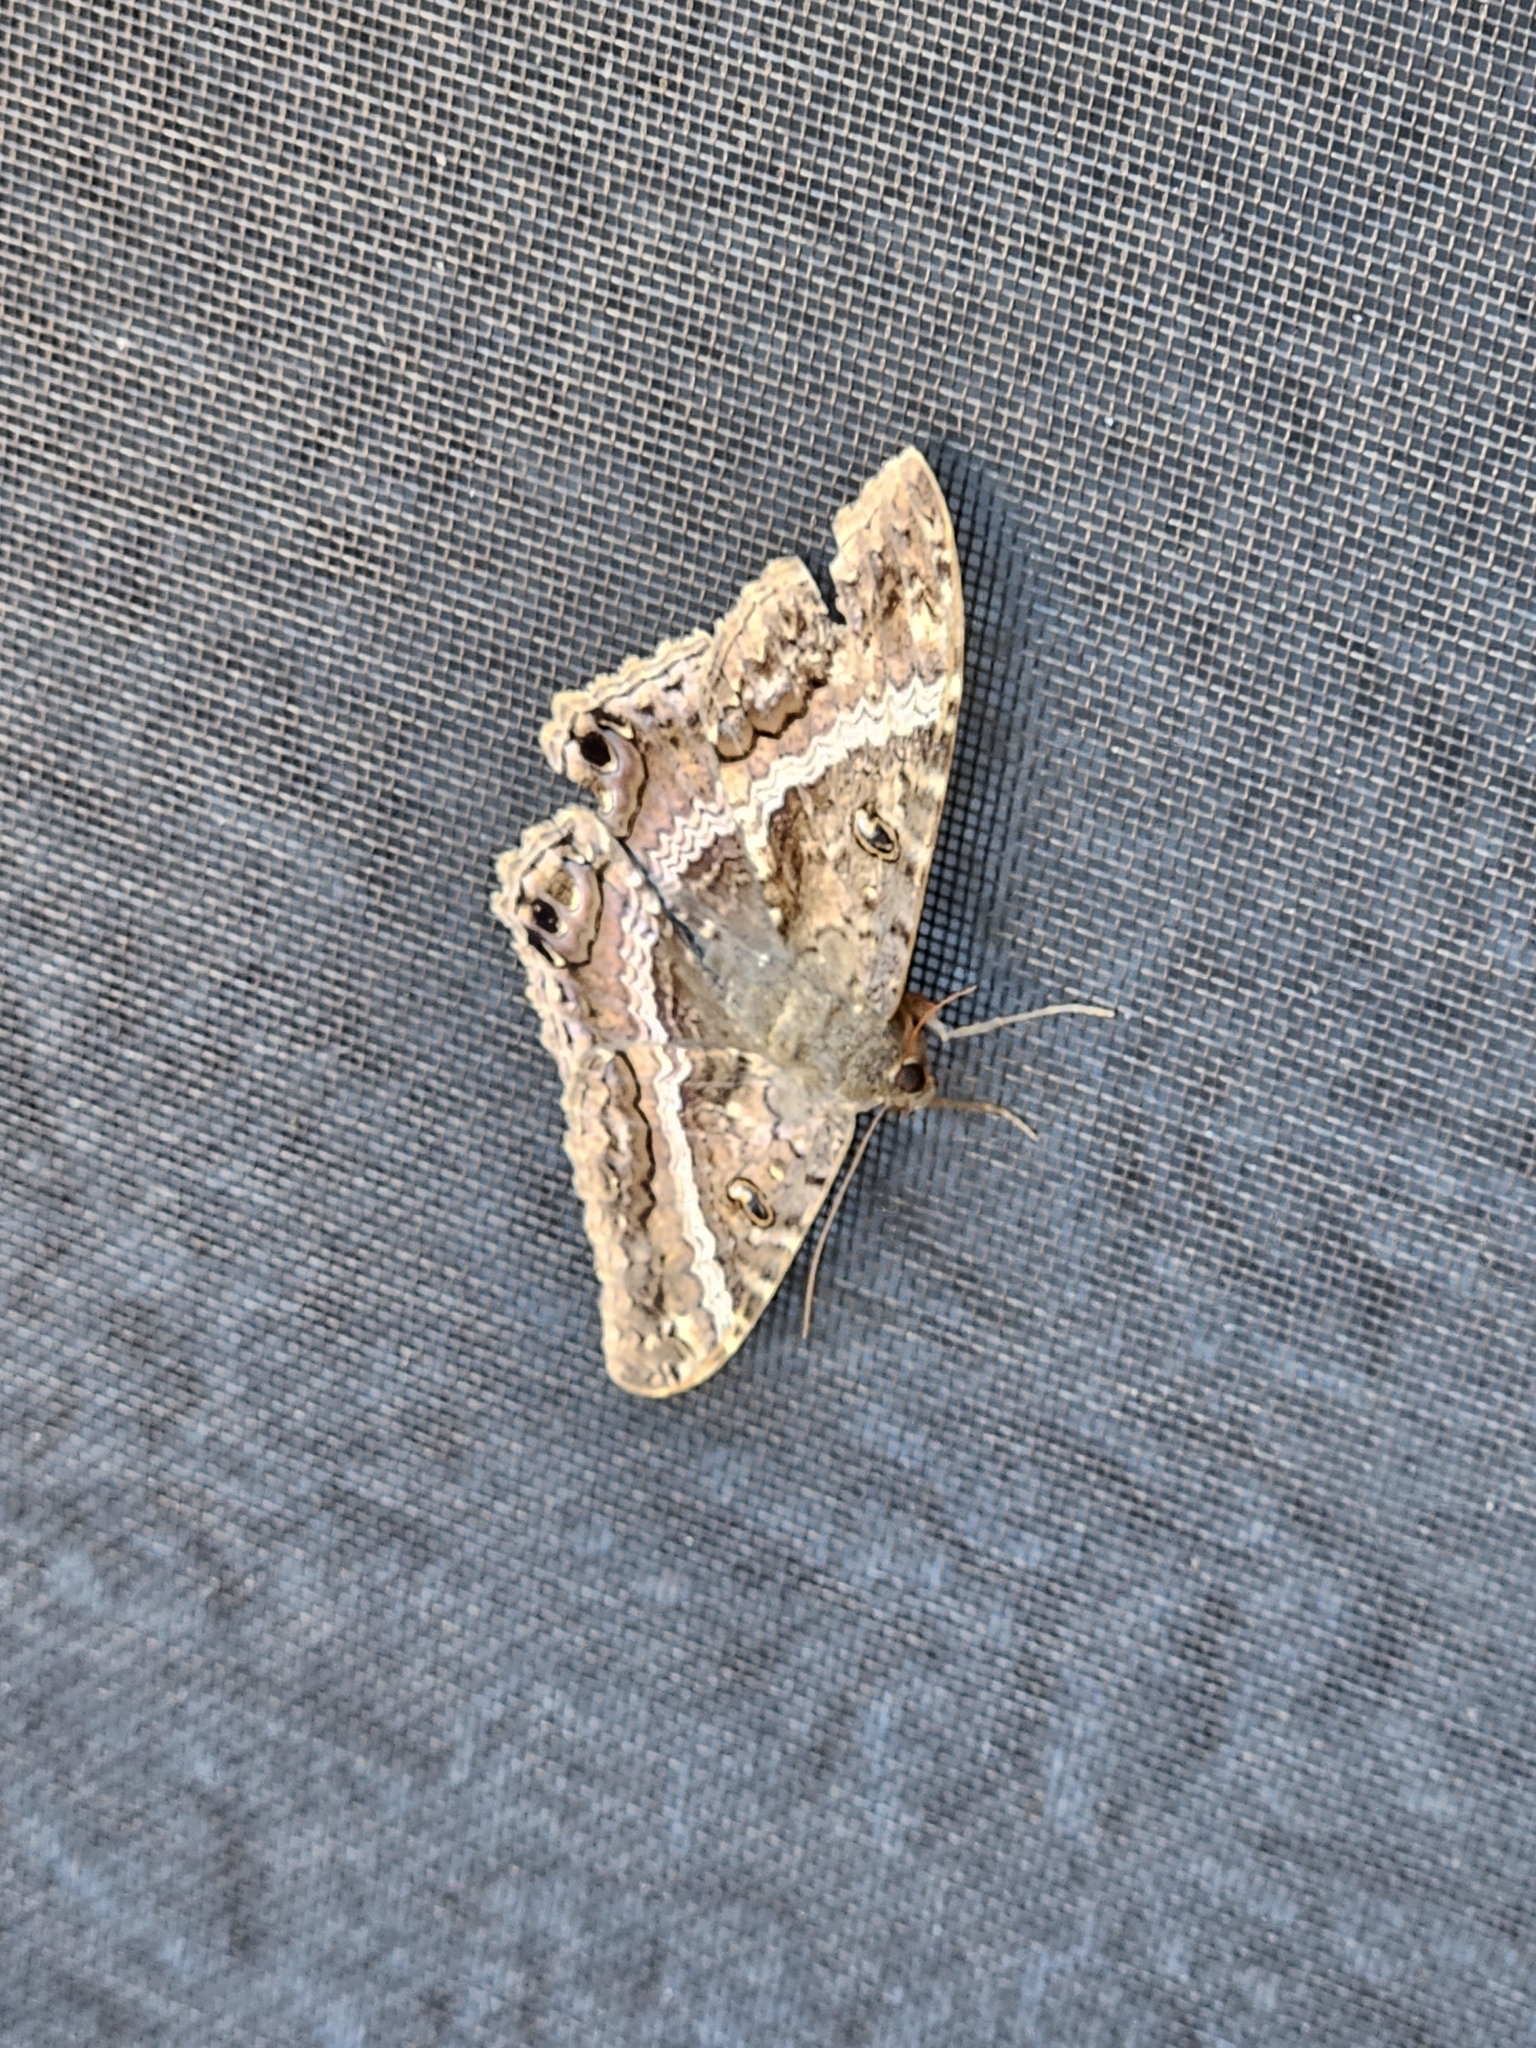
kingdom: Animalia
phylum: Arthropoda
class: Insecta
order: Lepidoptera
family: Erebidae
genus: Ascalapha
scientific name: Ascalapha odorata
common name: Black witch
